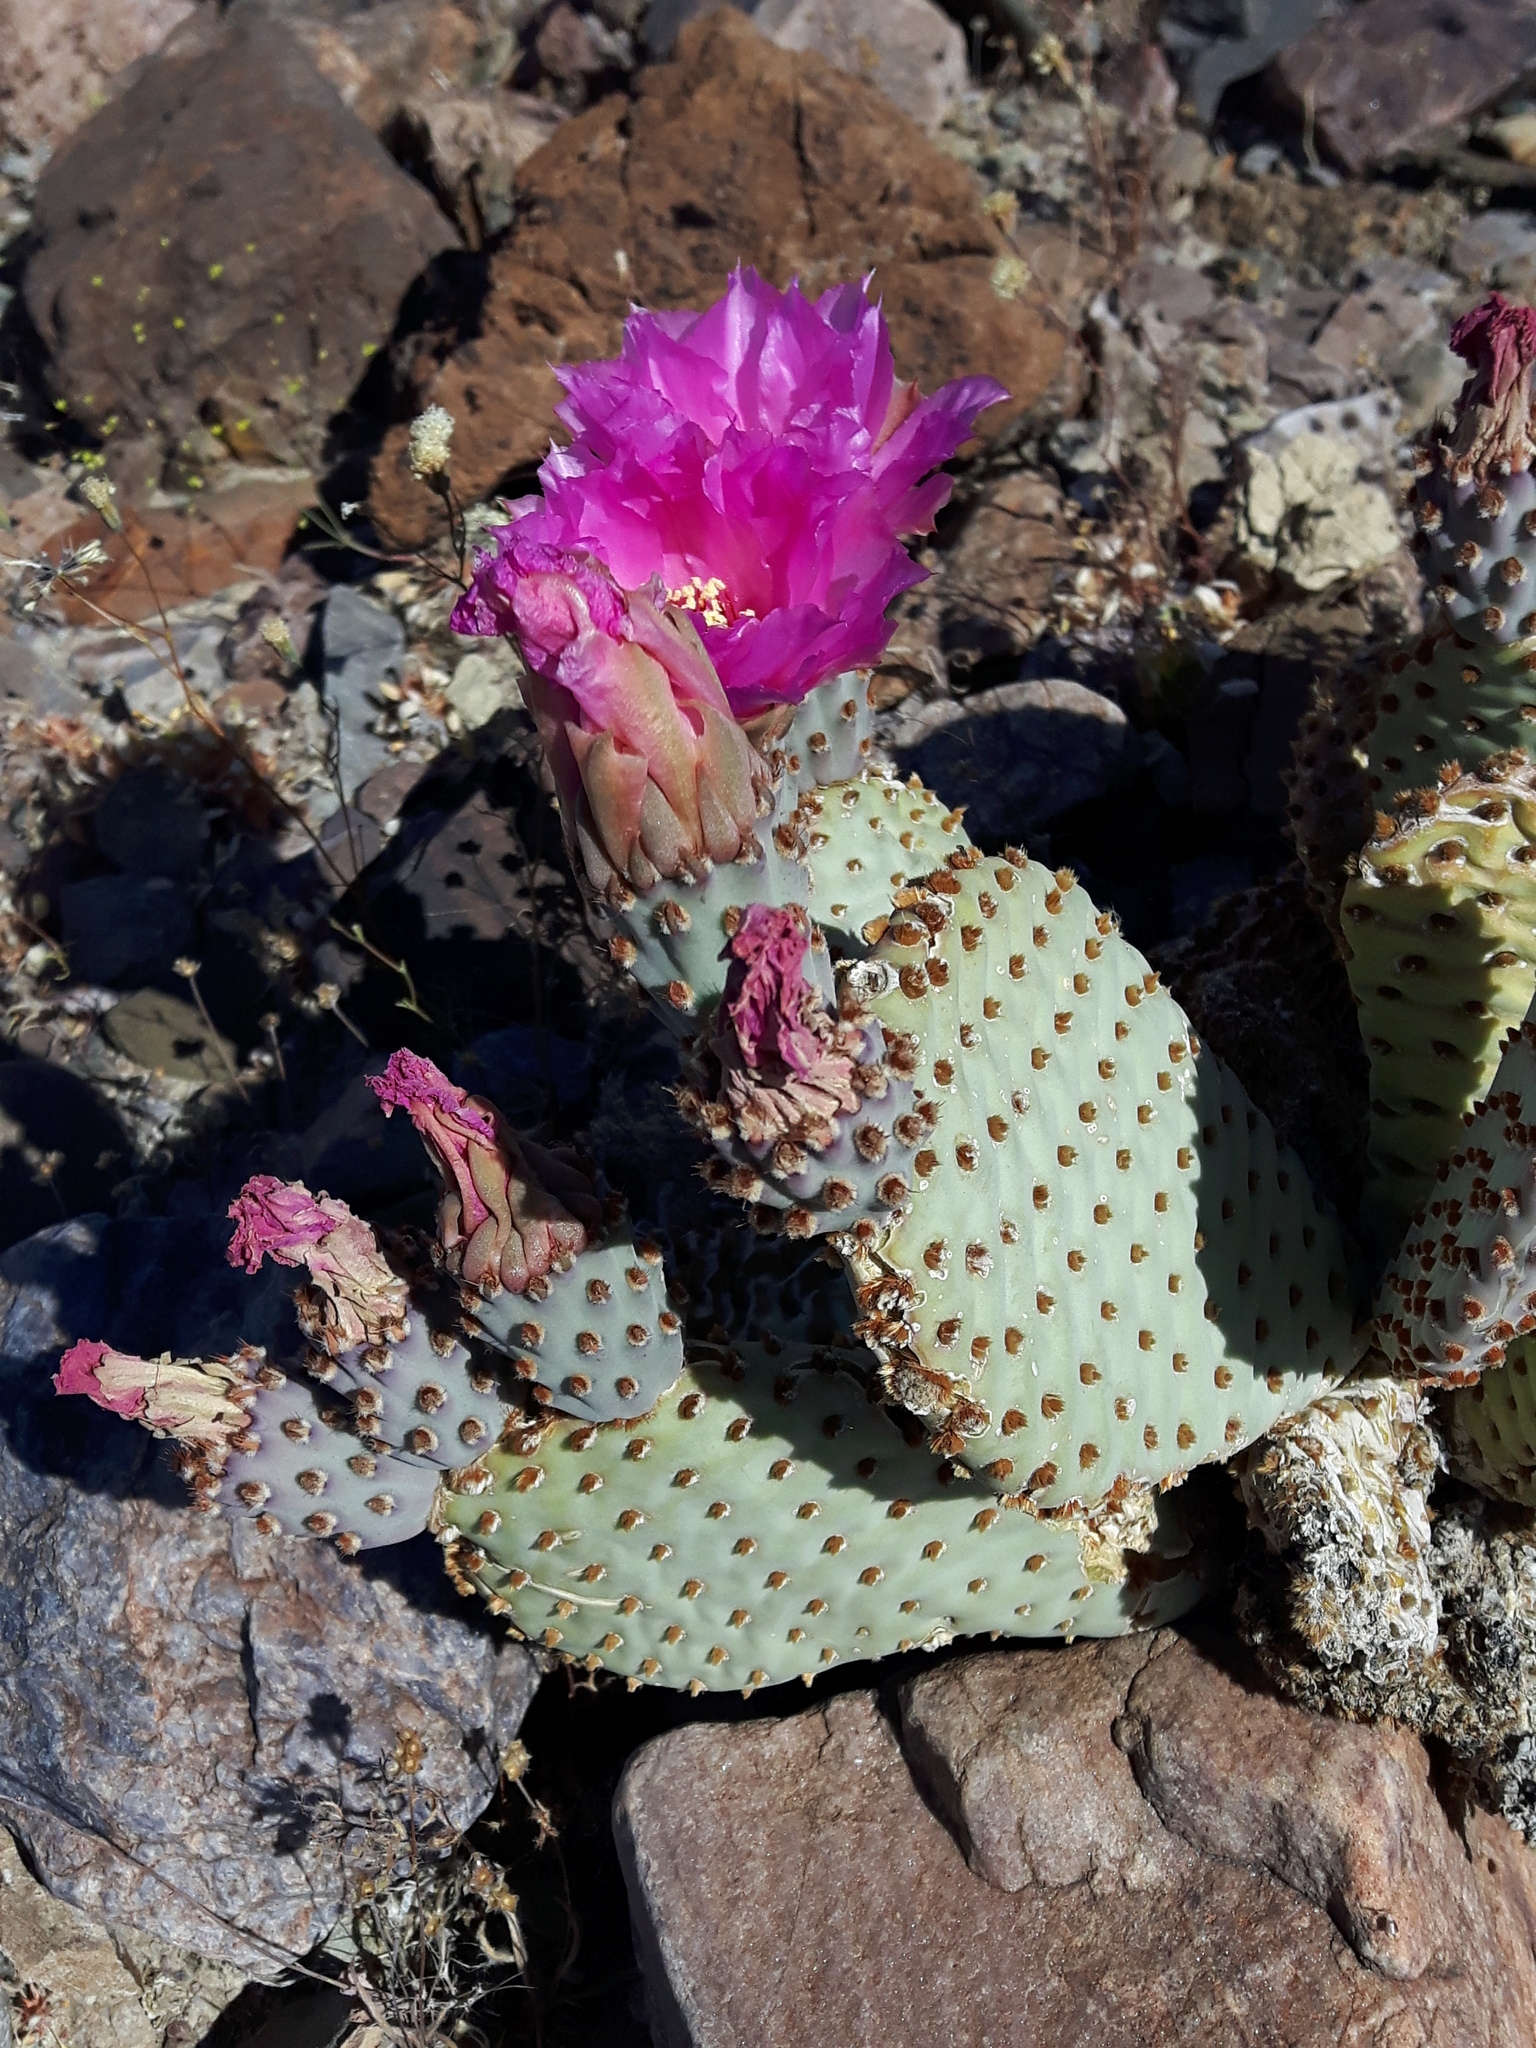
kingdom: Plantae
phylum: Tracheophyta
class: Magnoliopsida
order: Caryophyllales
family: Cactaceae
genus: Opuntia
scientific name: Opuntia basilaris
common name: Beavertail prickly-pear
